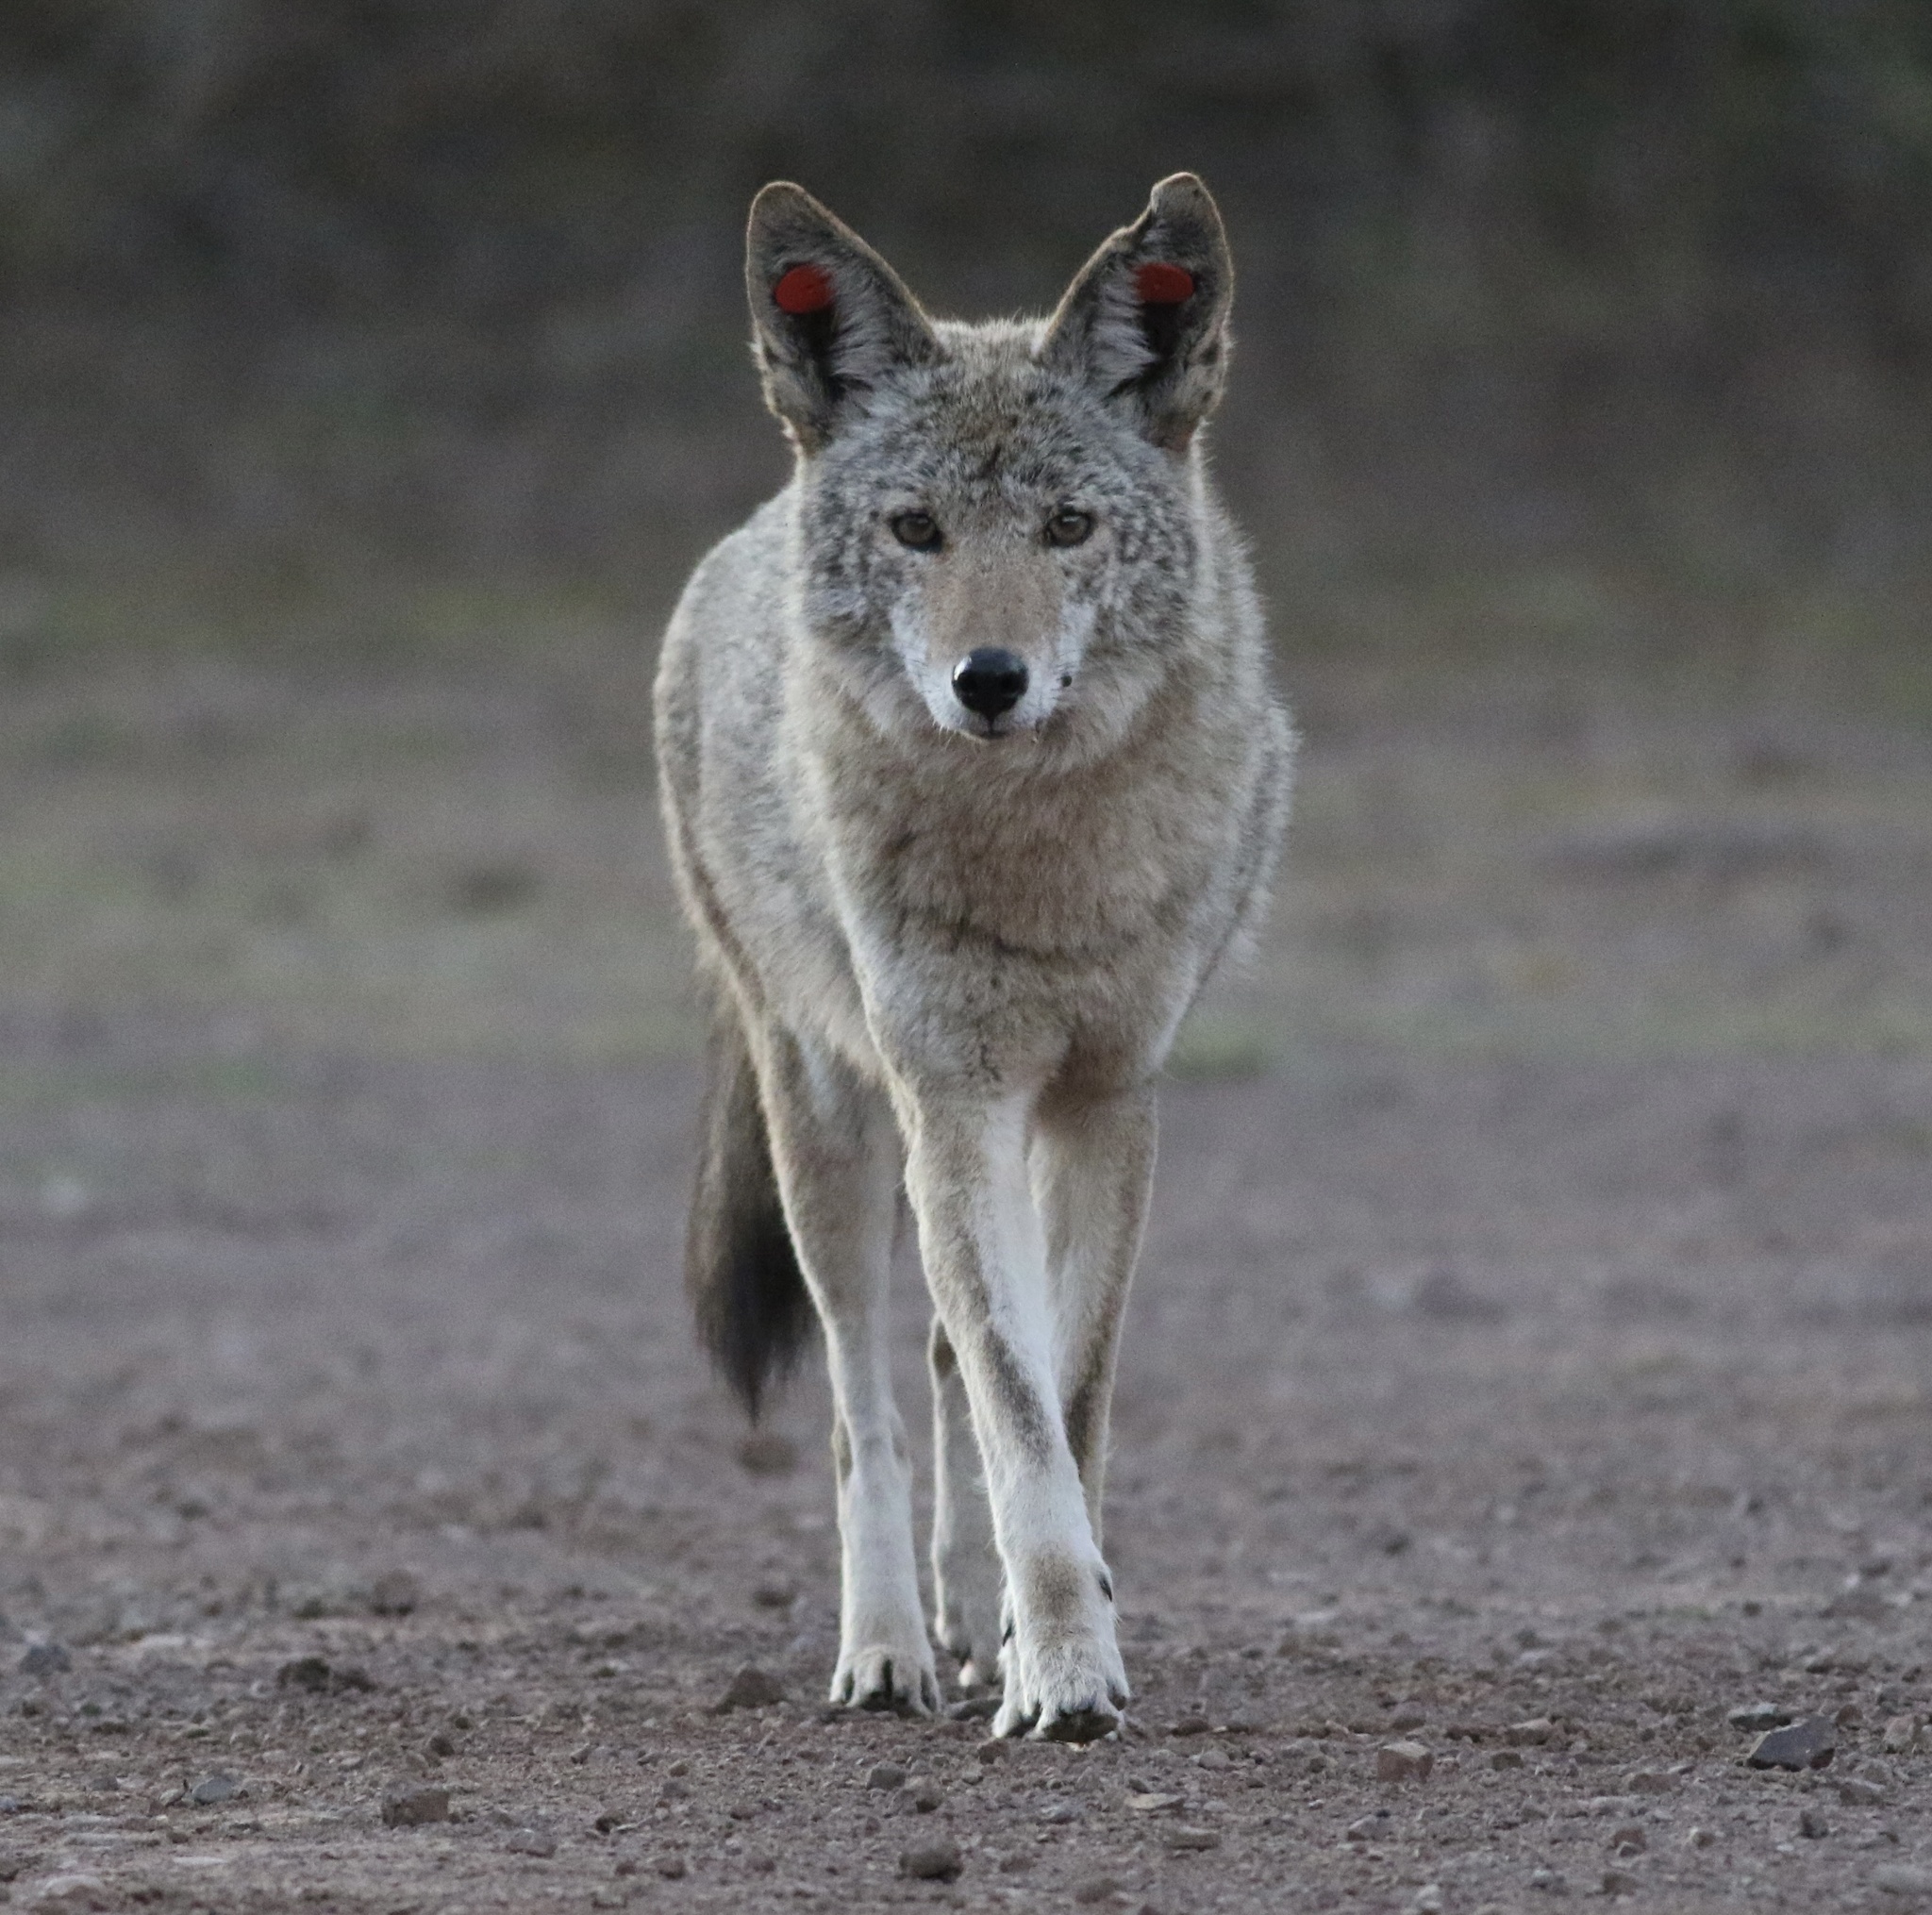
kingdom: Animalia
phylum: Chordata
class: Mammalia
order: Carnivora
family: Canidae
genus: Canis
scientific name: Canis latrans
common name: Coyote
